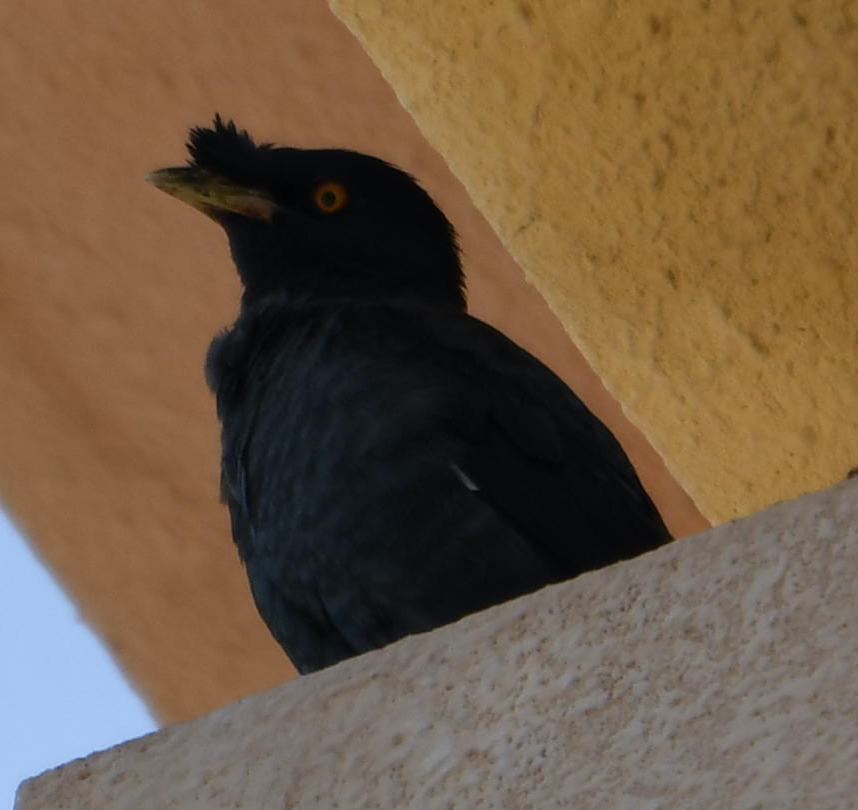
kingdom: Animalia
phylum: Chordata
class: Aves
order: Passeriformes
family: Sturnidae
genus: Acridotheres
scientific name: Acridotheres cristatellus
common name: Crested myna
